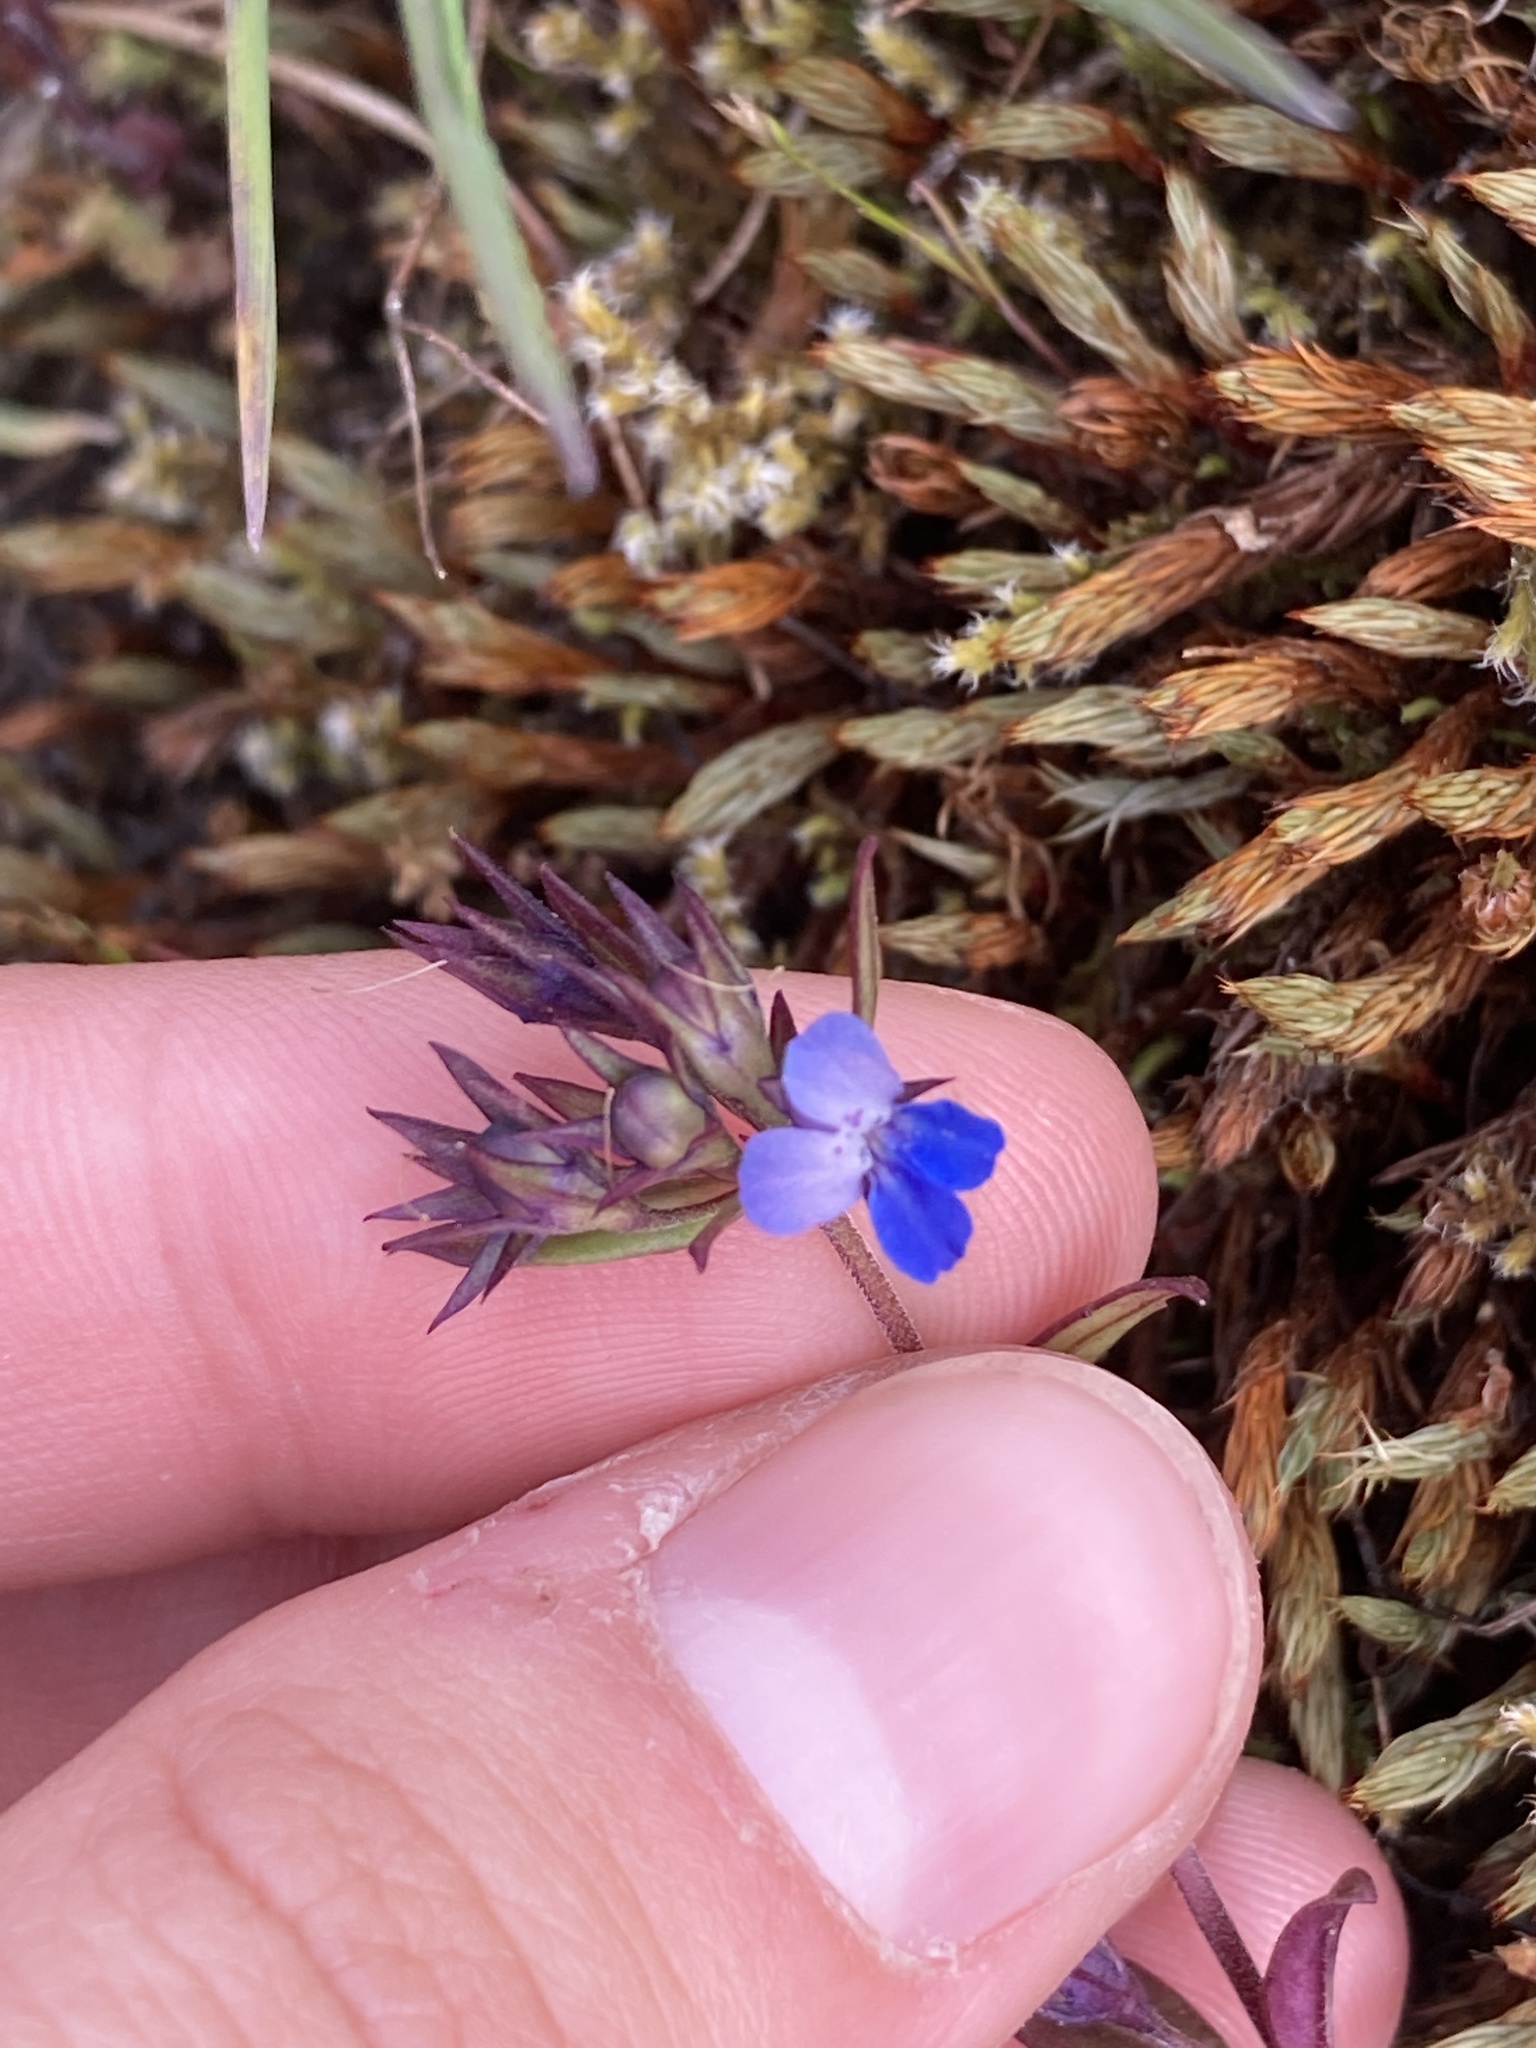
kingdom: Plantae
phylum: Tracheophyta
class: Magnoliopsida
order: Lamiales
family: Plantaginaceae
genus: Collinsia
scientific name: Collinsia parviflora
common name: Blue-lips
